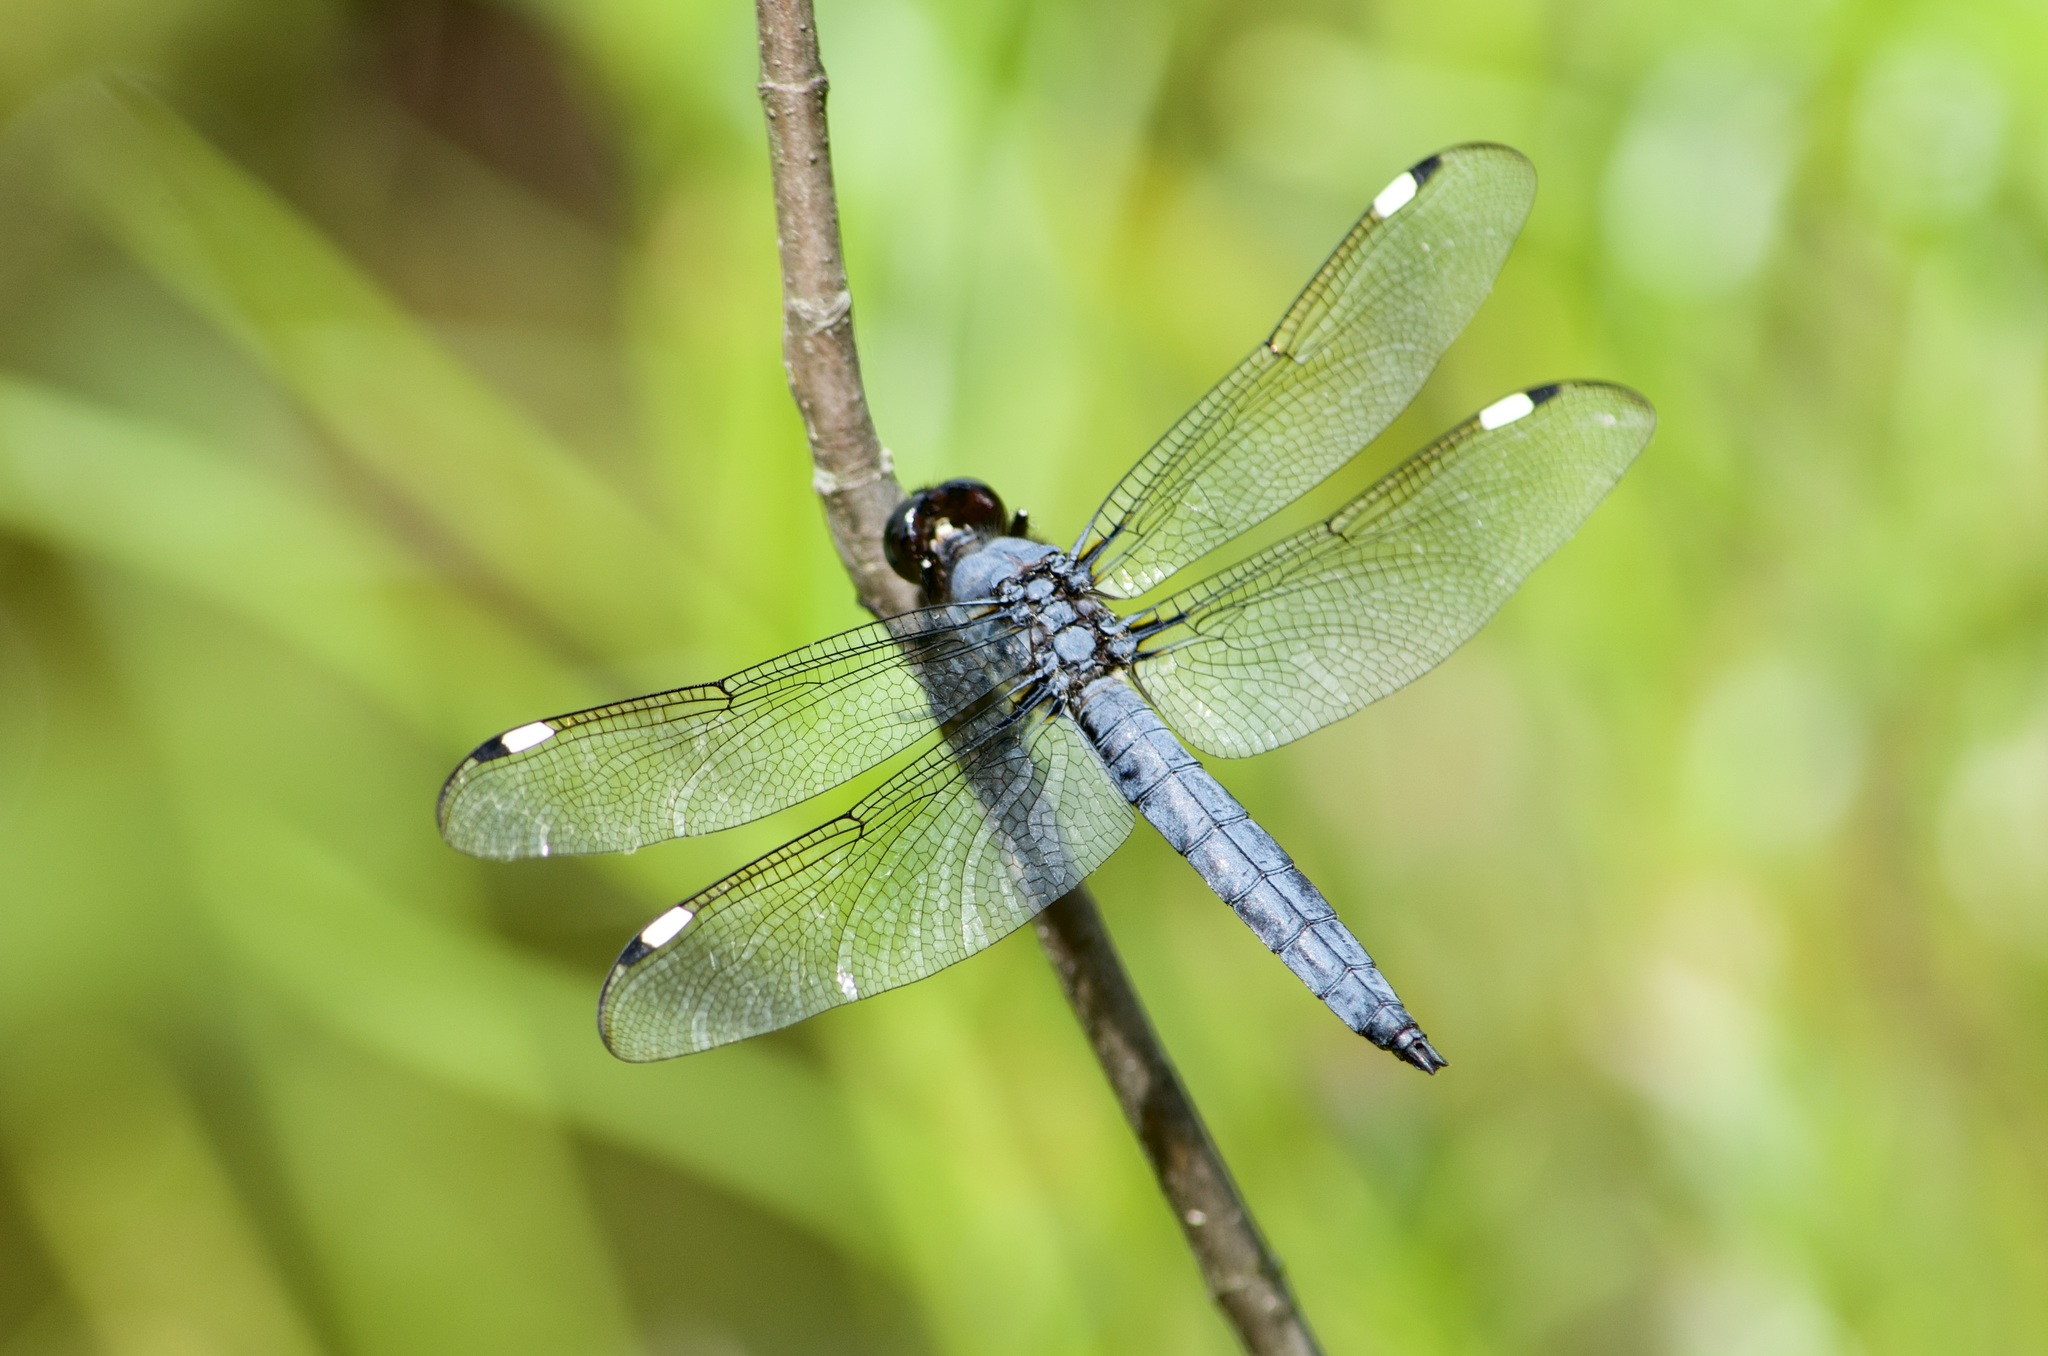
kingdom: Animalia
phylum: Arthropoda
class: Insecta
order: Odonata
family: Libellulidae
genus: Libellula
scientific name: Libellula cyanea
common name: Spangled skimmer
